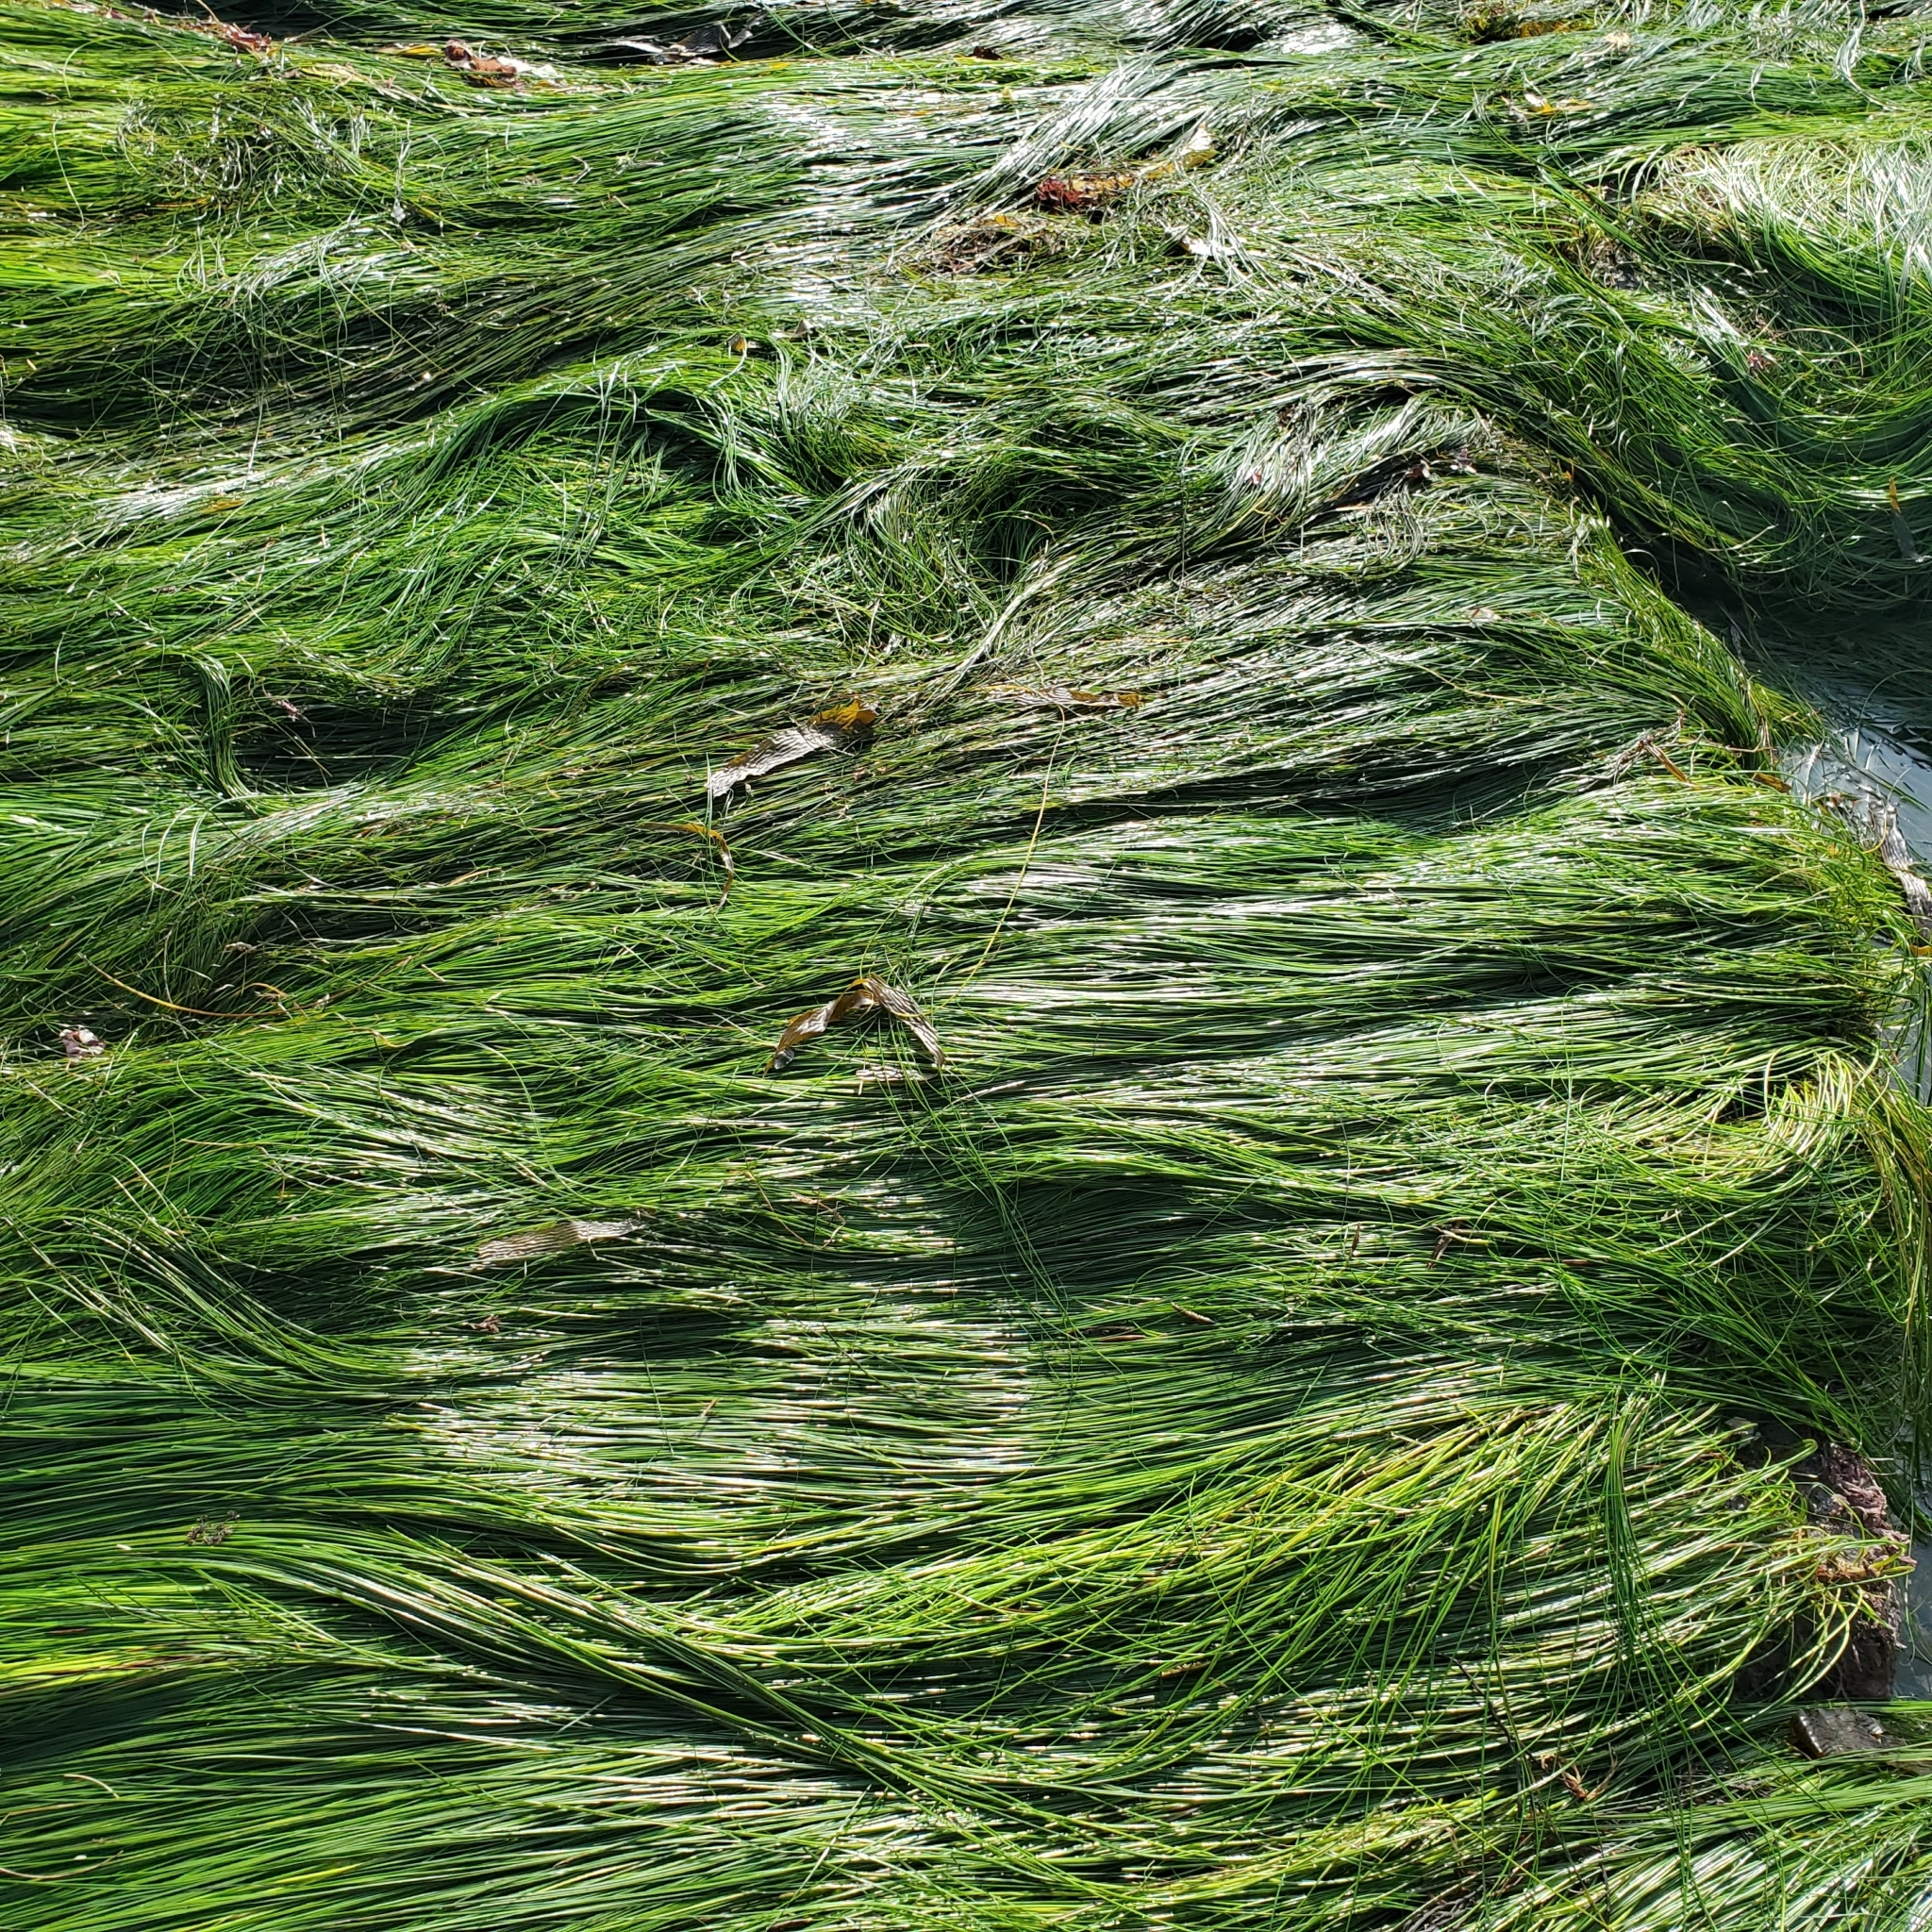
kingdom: Plantae
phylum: Tracheophyta
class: Liliopsida
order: Alismatales
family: Zosteraceae
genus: Phyllospadix
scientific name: Phyllospadix torreyi
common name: Surfgrass
